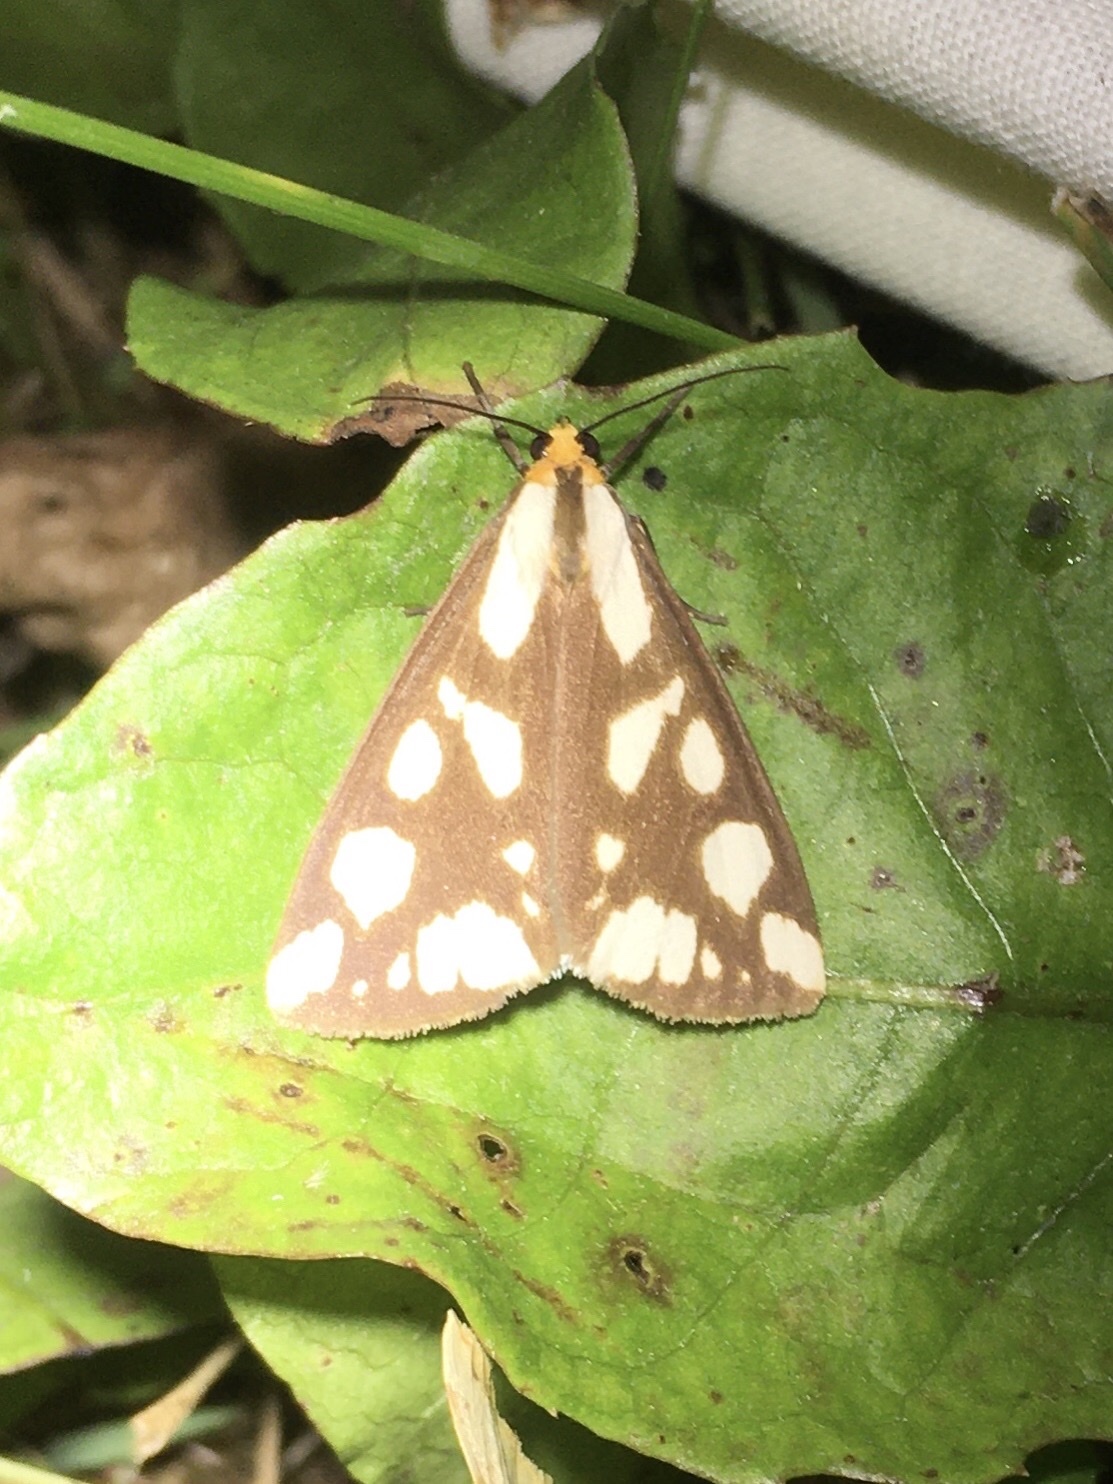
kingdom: Animalia
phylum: Arthropoda
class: Insecta
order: Lepidoptera
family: Erebidae
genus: Haploa
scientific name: Haploa confusa
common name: Confused haploa moth
